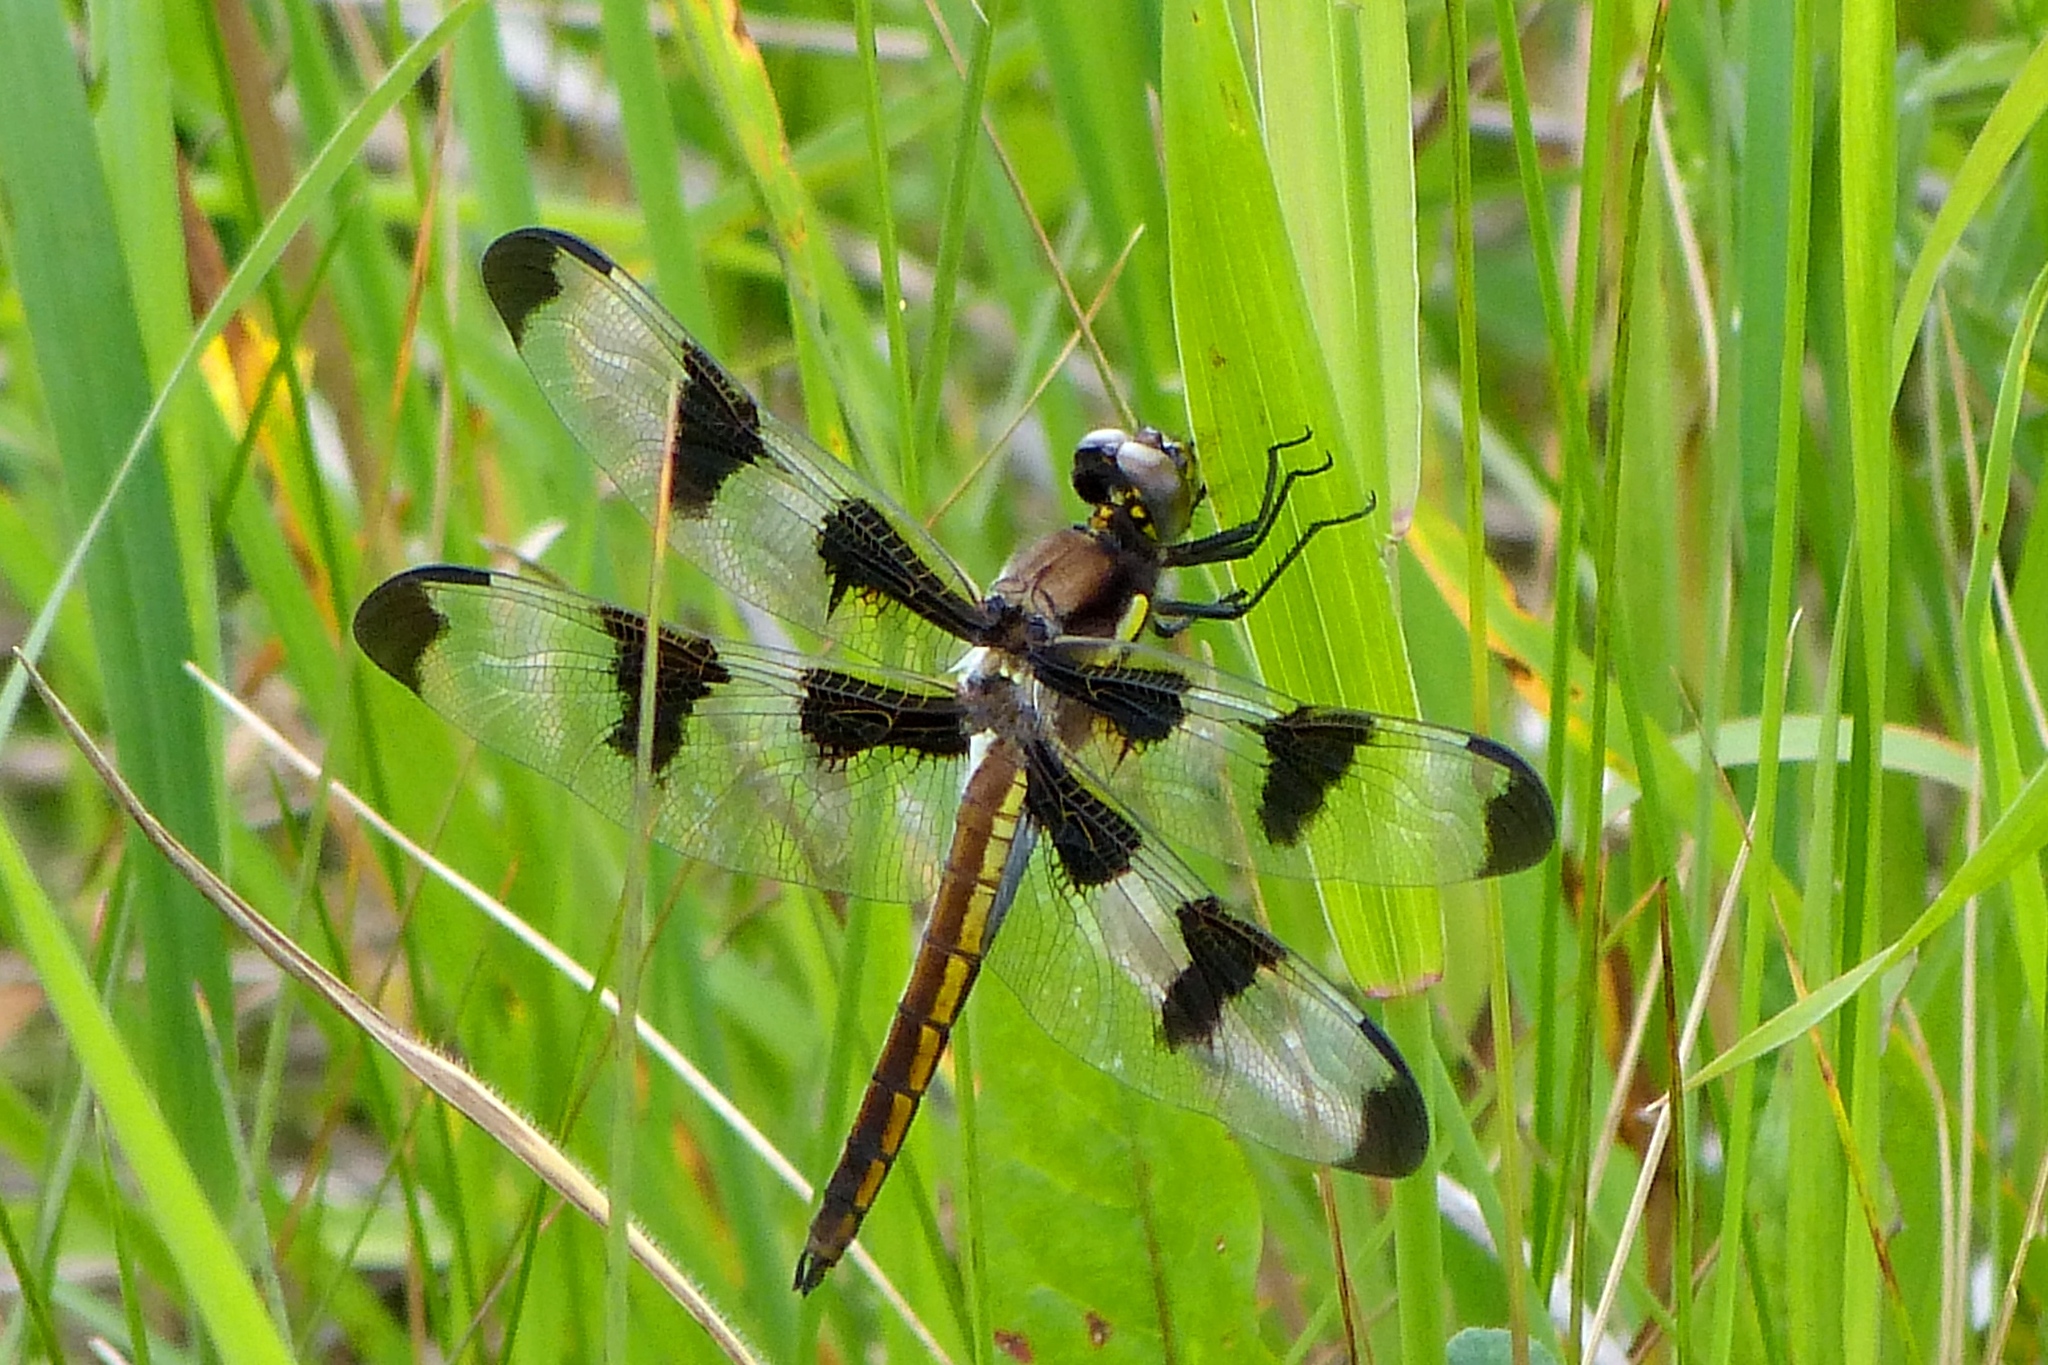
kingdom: Animalia
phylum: Arthropoda
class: Insecta
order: Odonata
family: Libellulidae
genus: Libellula
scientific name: Libellula pulchella
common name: Twelve-spotted skimmer
